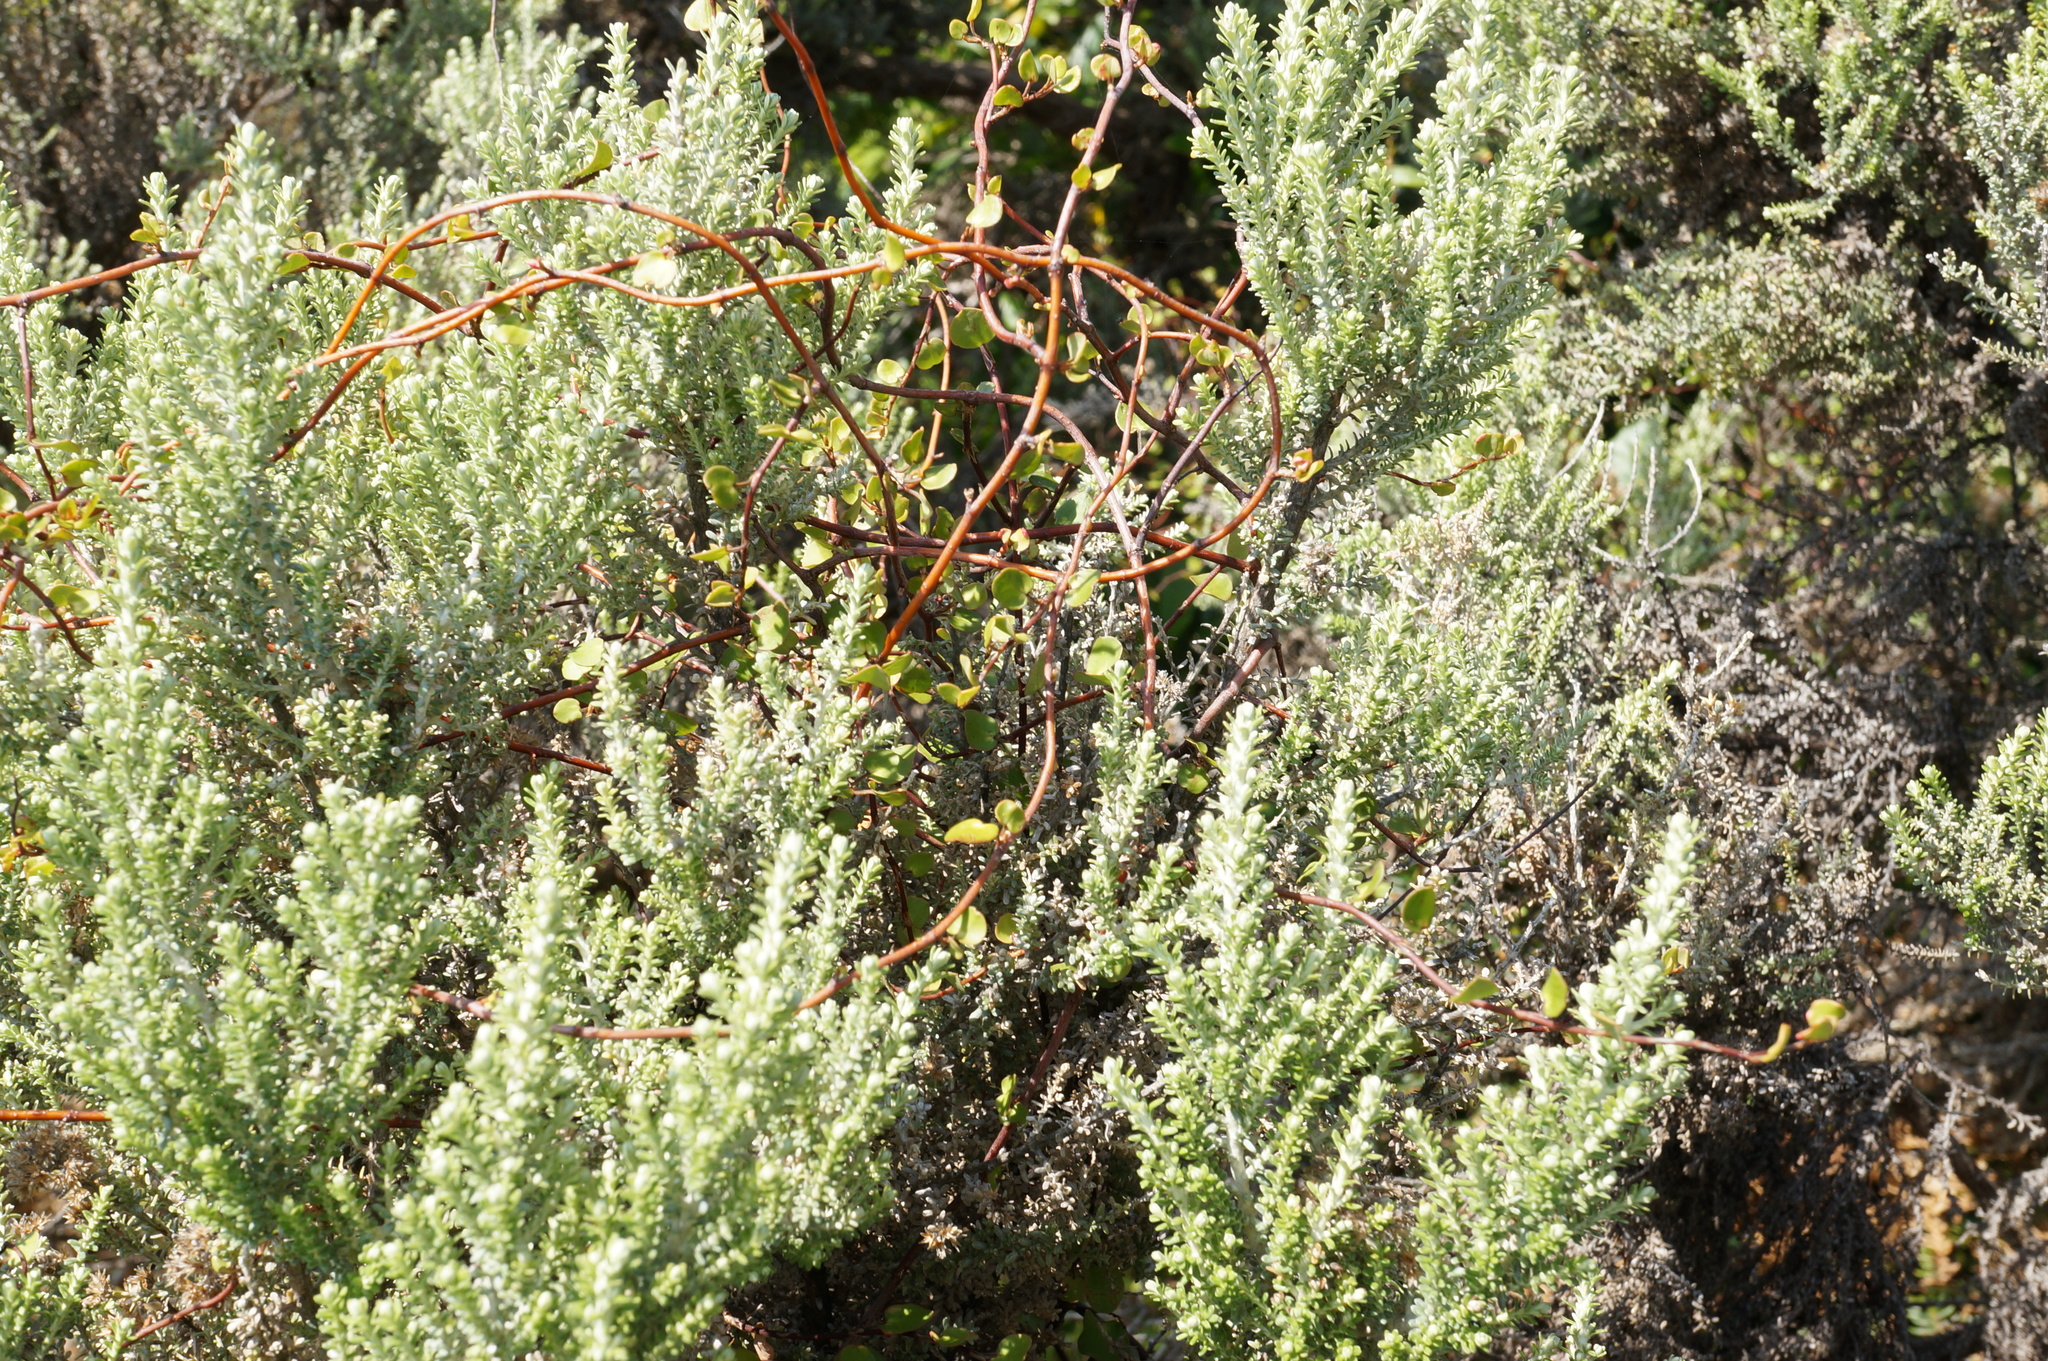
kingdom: Plantae
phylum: Tracheophyta
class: Magnoliopsida
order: Asterales
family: Asteraceae
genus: Ozothamnus
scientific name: Ozothamnus leptophyllus
